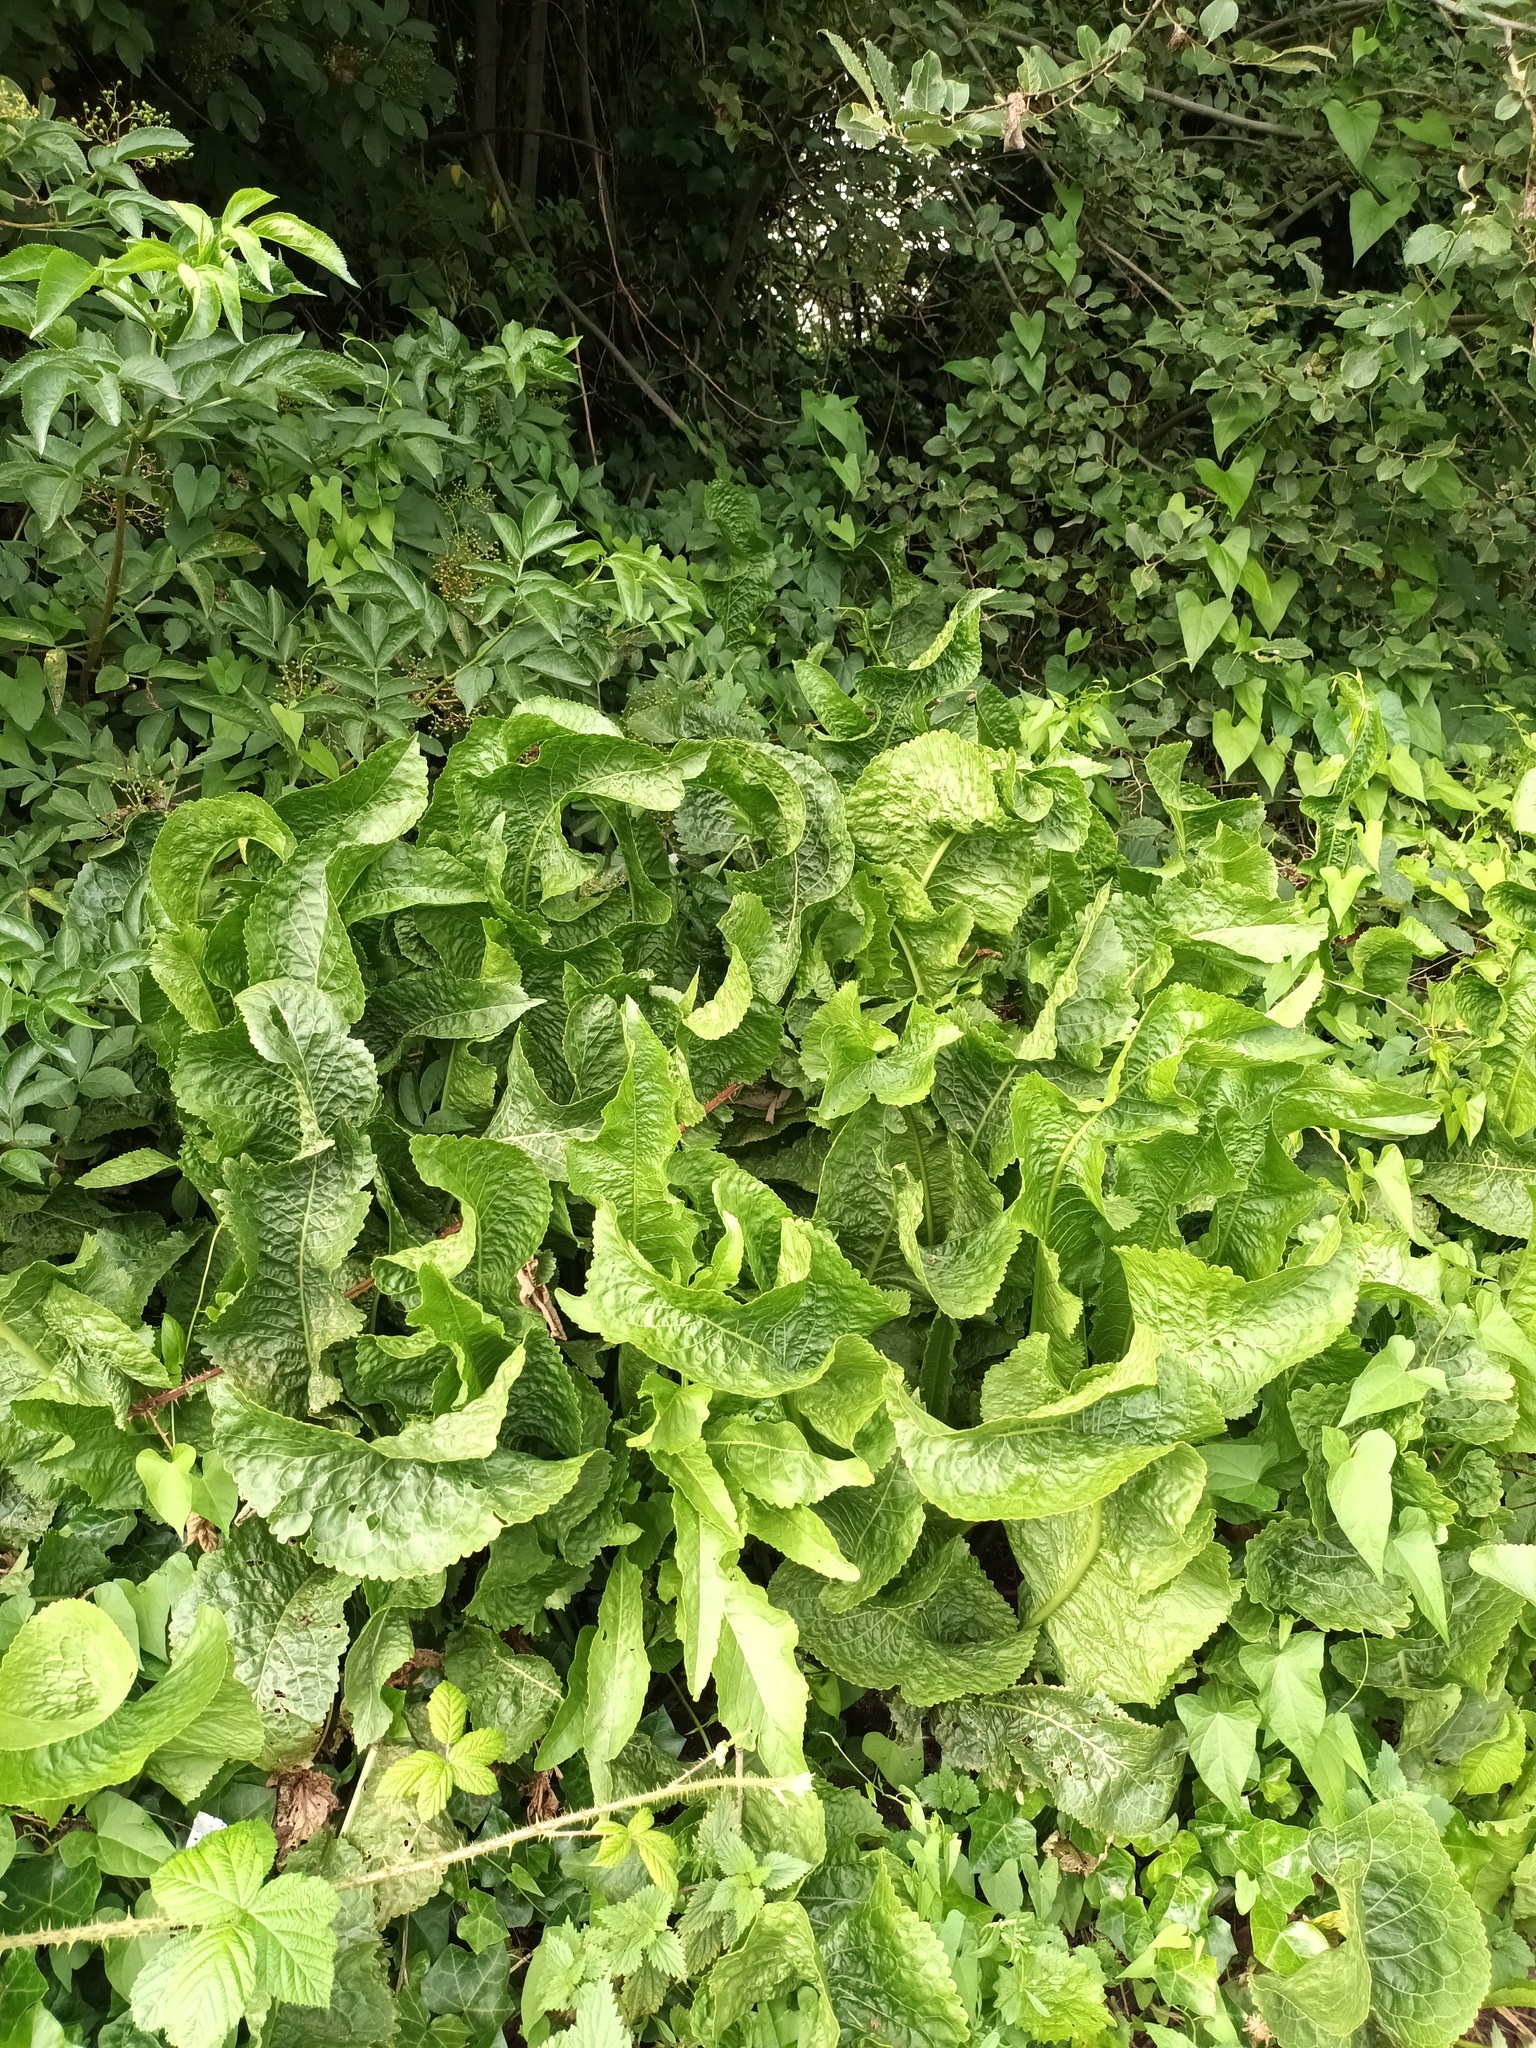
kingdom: Plantae
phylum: Tracheophyta
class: Magnoliopsida
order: Brassicales
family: Brassicaceae
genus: Armoracia
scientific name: Armoracia rusticana
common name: Horseradish
